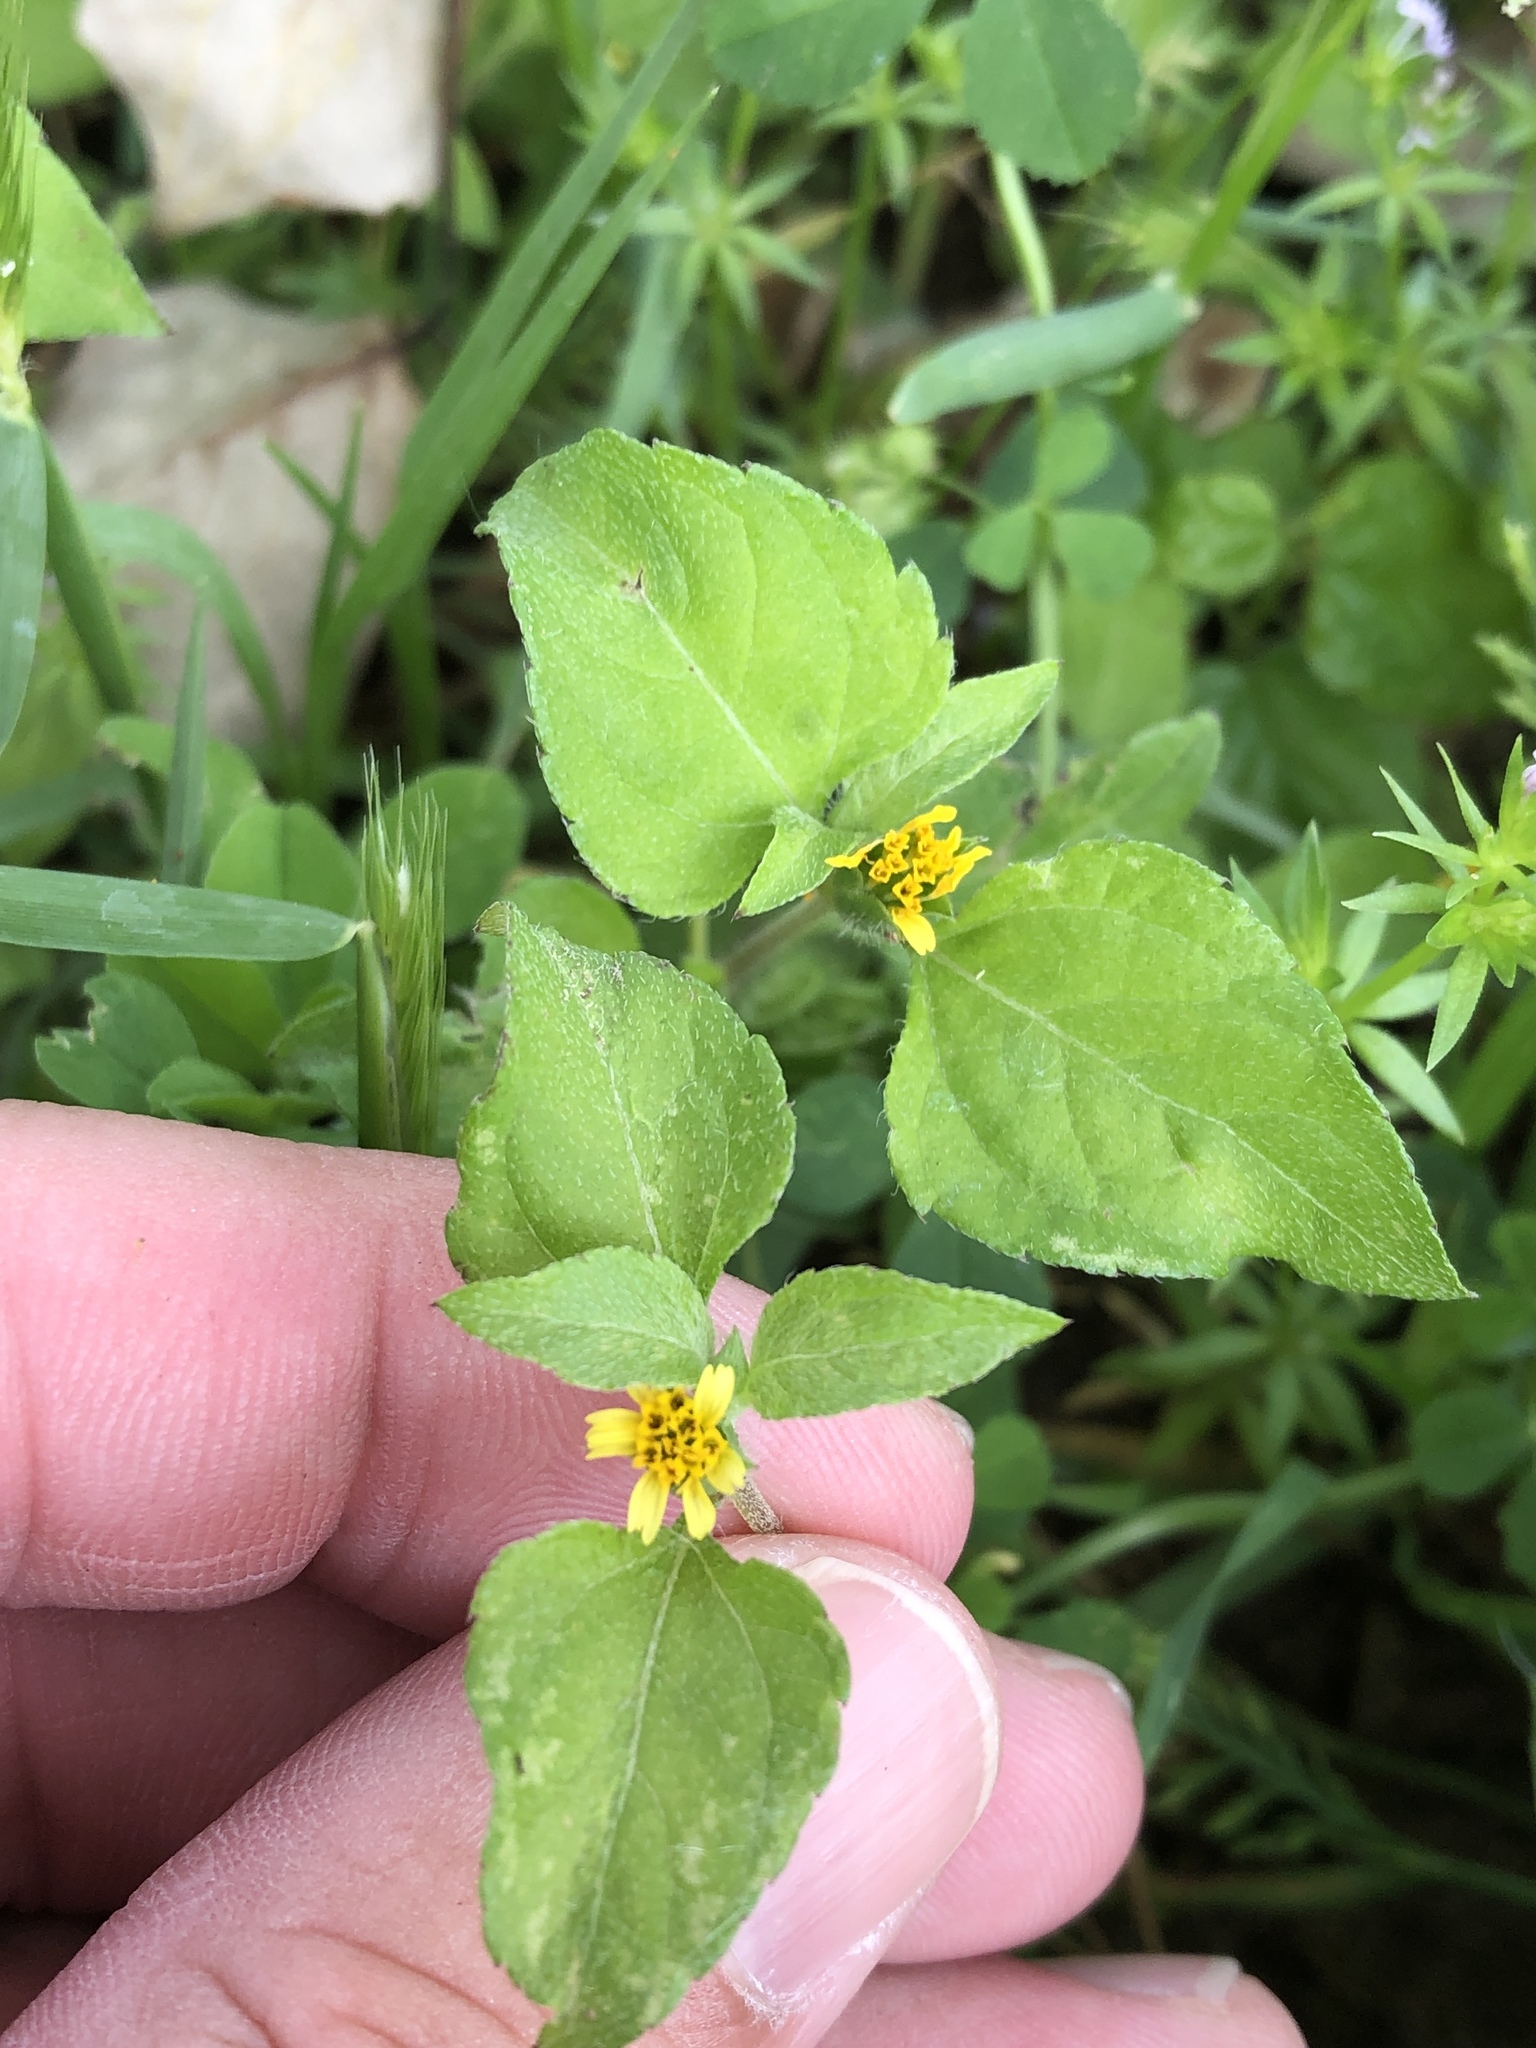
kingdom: Plantae
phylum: Tracheophyta
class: Magnoliopsida
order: Asterales
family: Asteraceae
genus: Calyptocarpus
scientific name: Calyptocarpus vialis
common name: Straggler daisy
